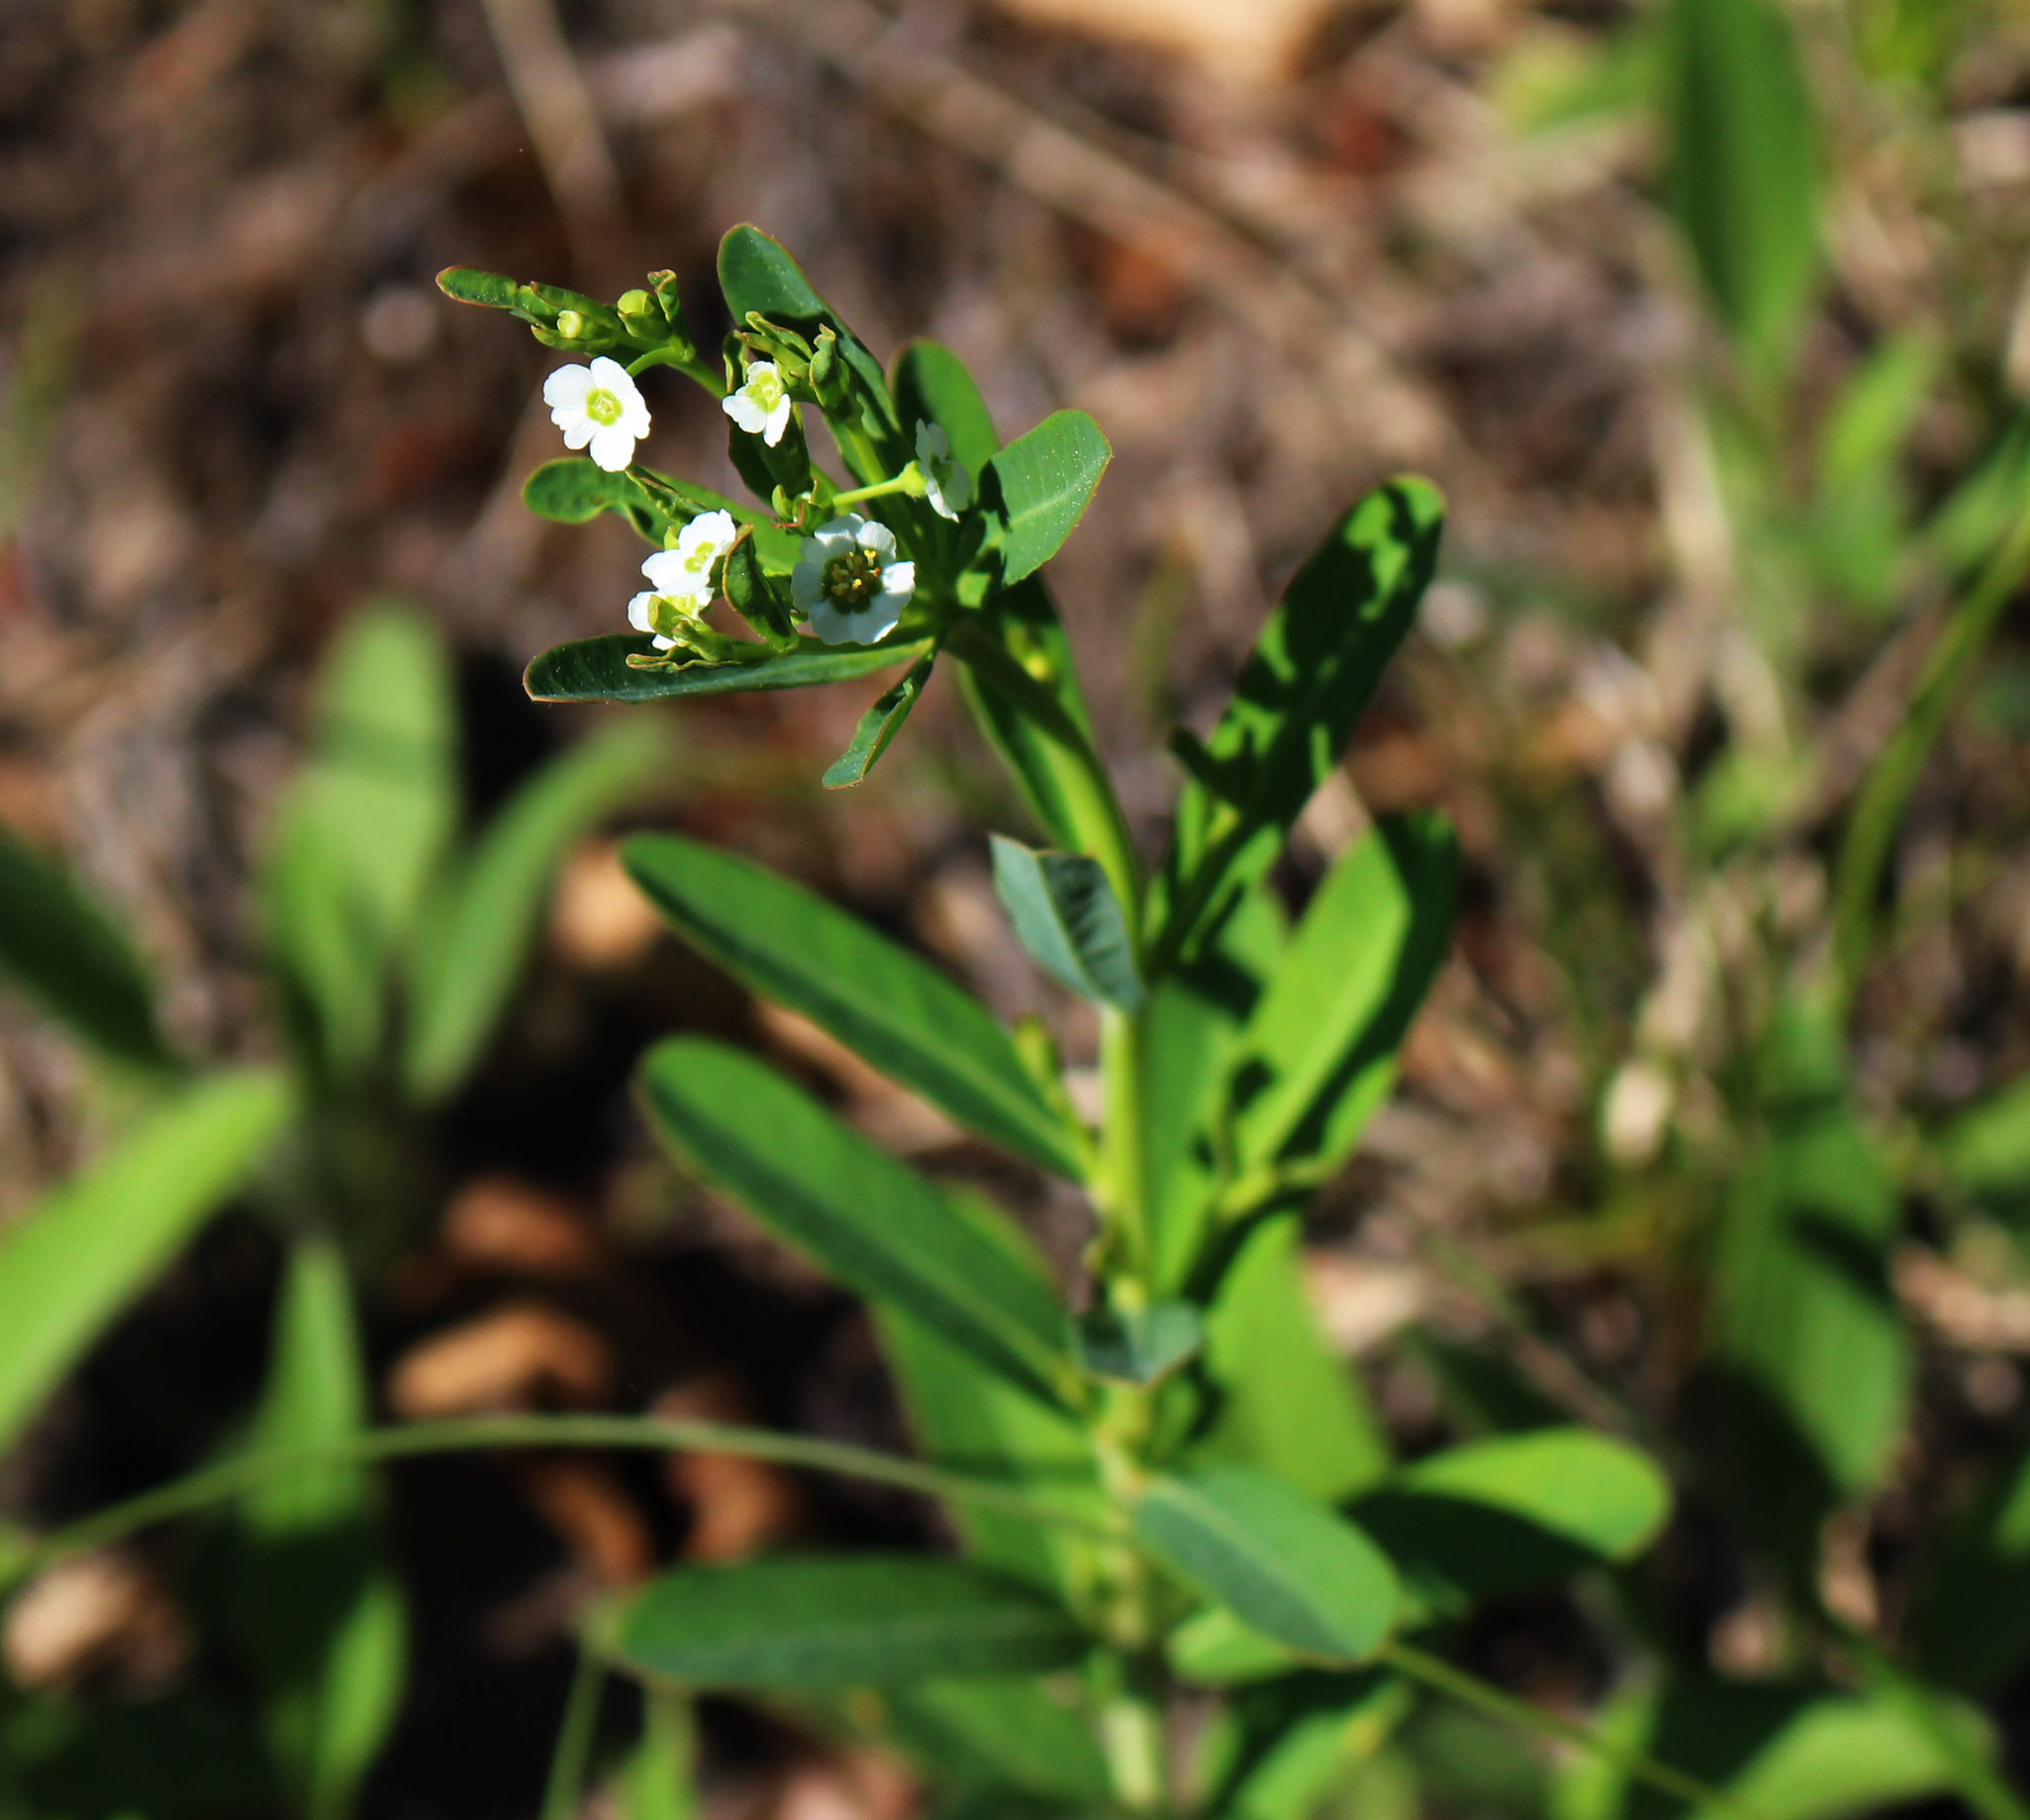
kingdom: Plantae
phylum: Tracheophyta
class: Magnoliopsida
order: Malpighiales
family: Euphorbiaceae
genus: Euphorbia
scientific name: Euphorbia corollata
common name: Flowering spurge
